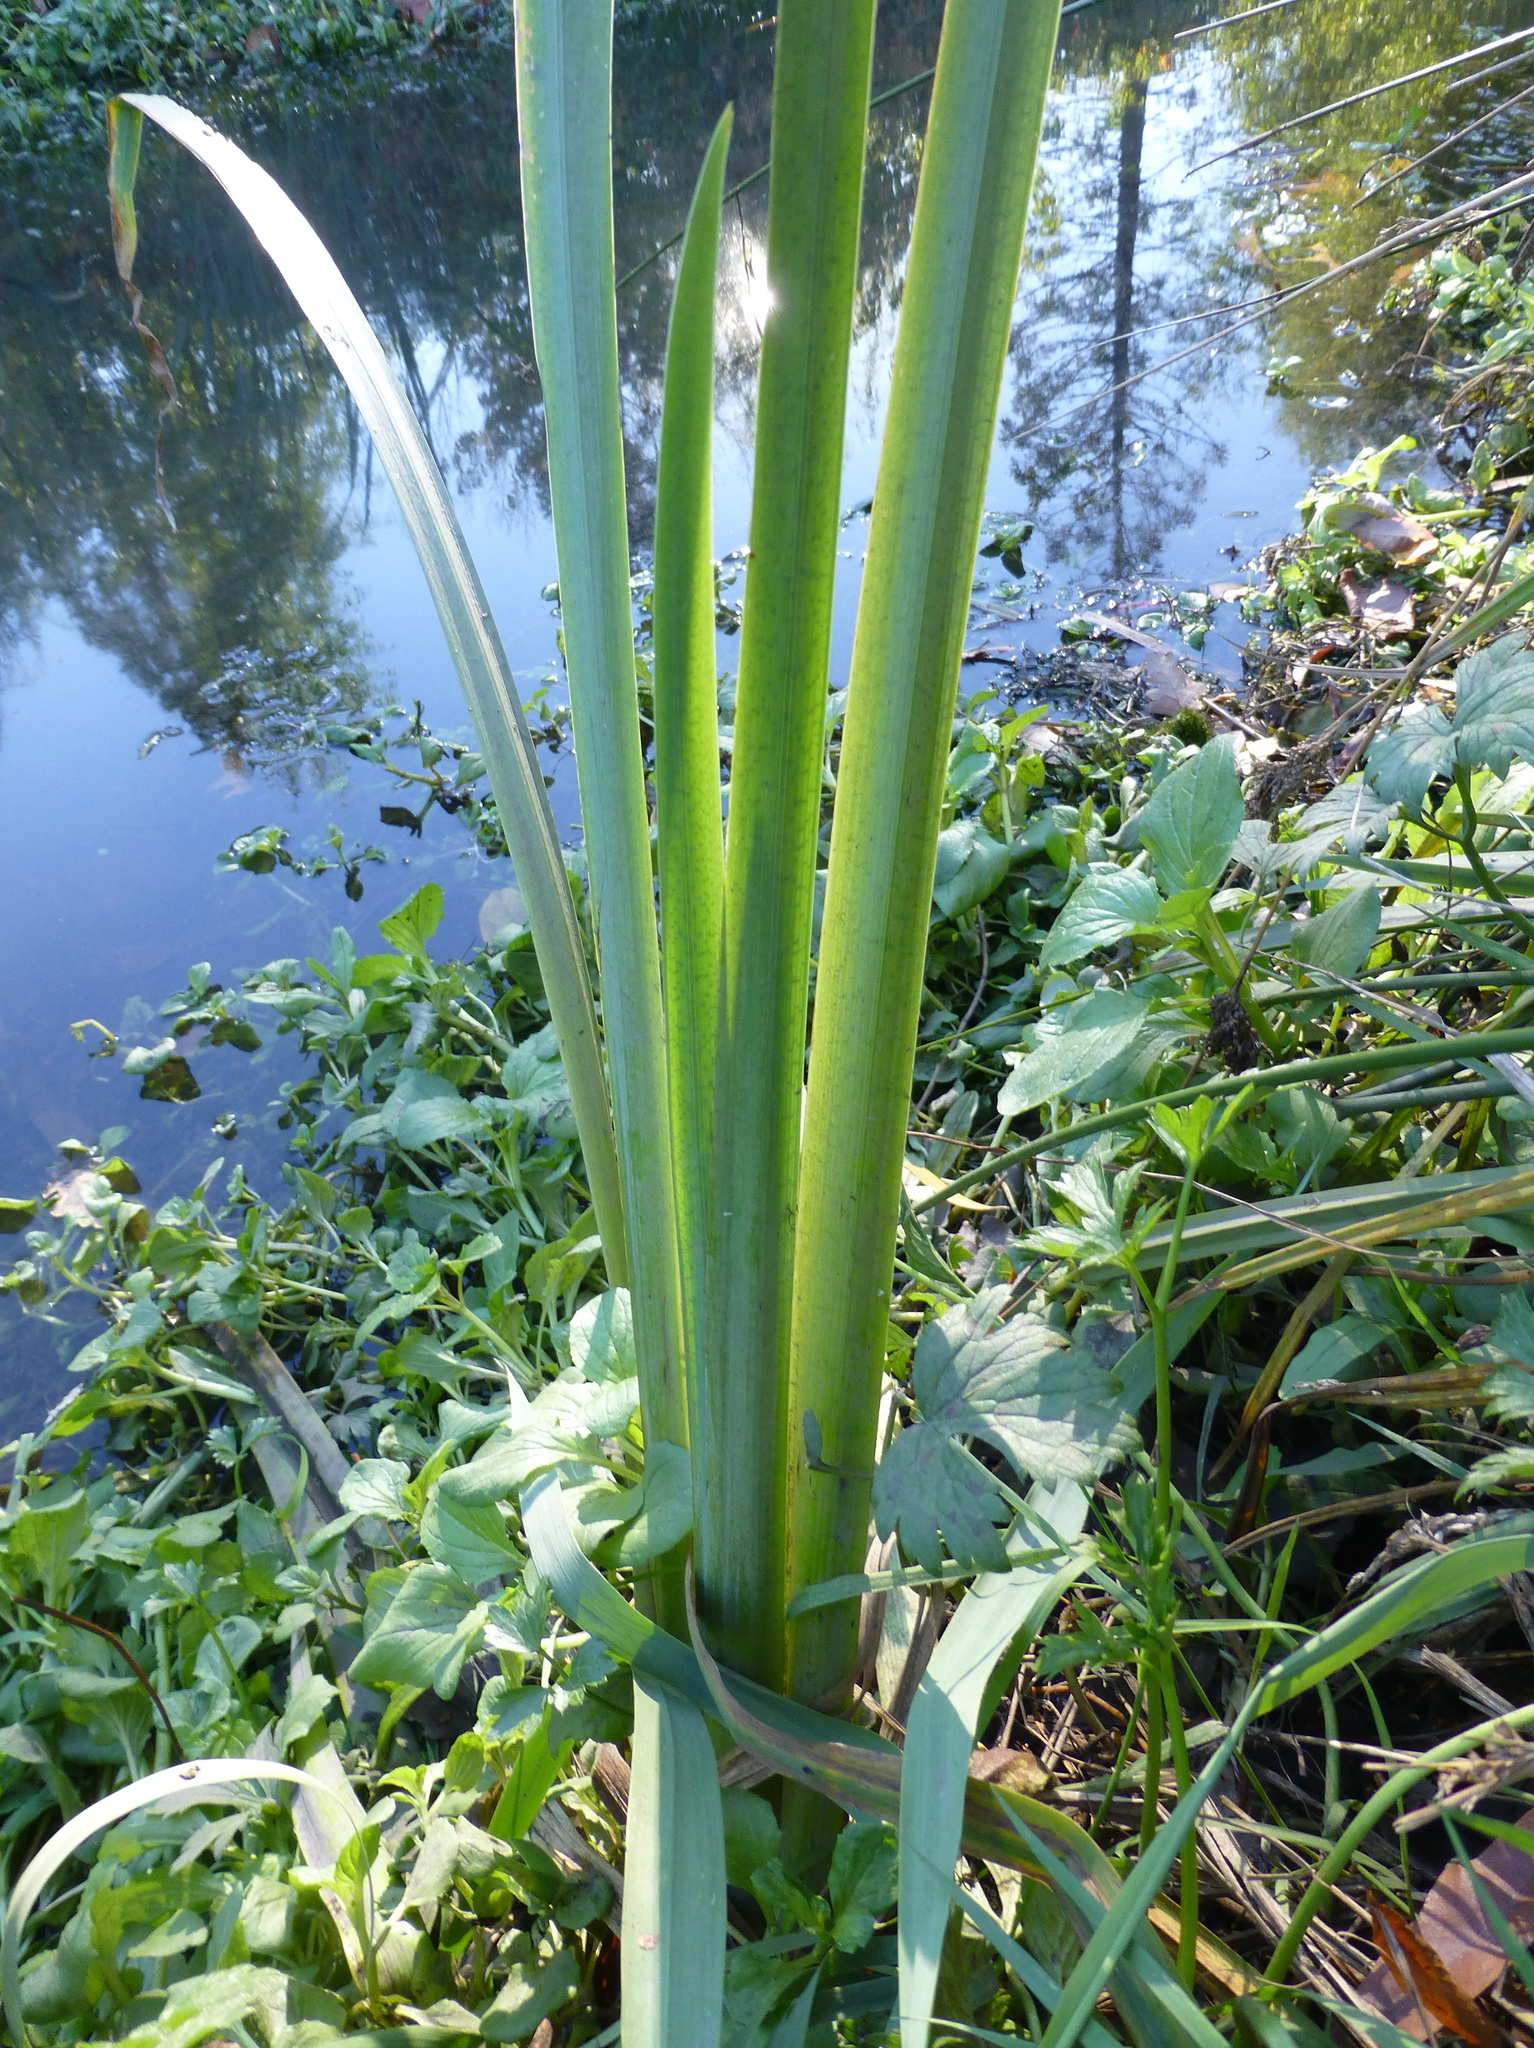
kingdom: Plantae
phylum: Tracheophyta
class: Liliopsida
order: Asparagales
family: Iridaceae
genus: Iris
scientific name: Iris pseudacorus
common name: Yellow flag
